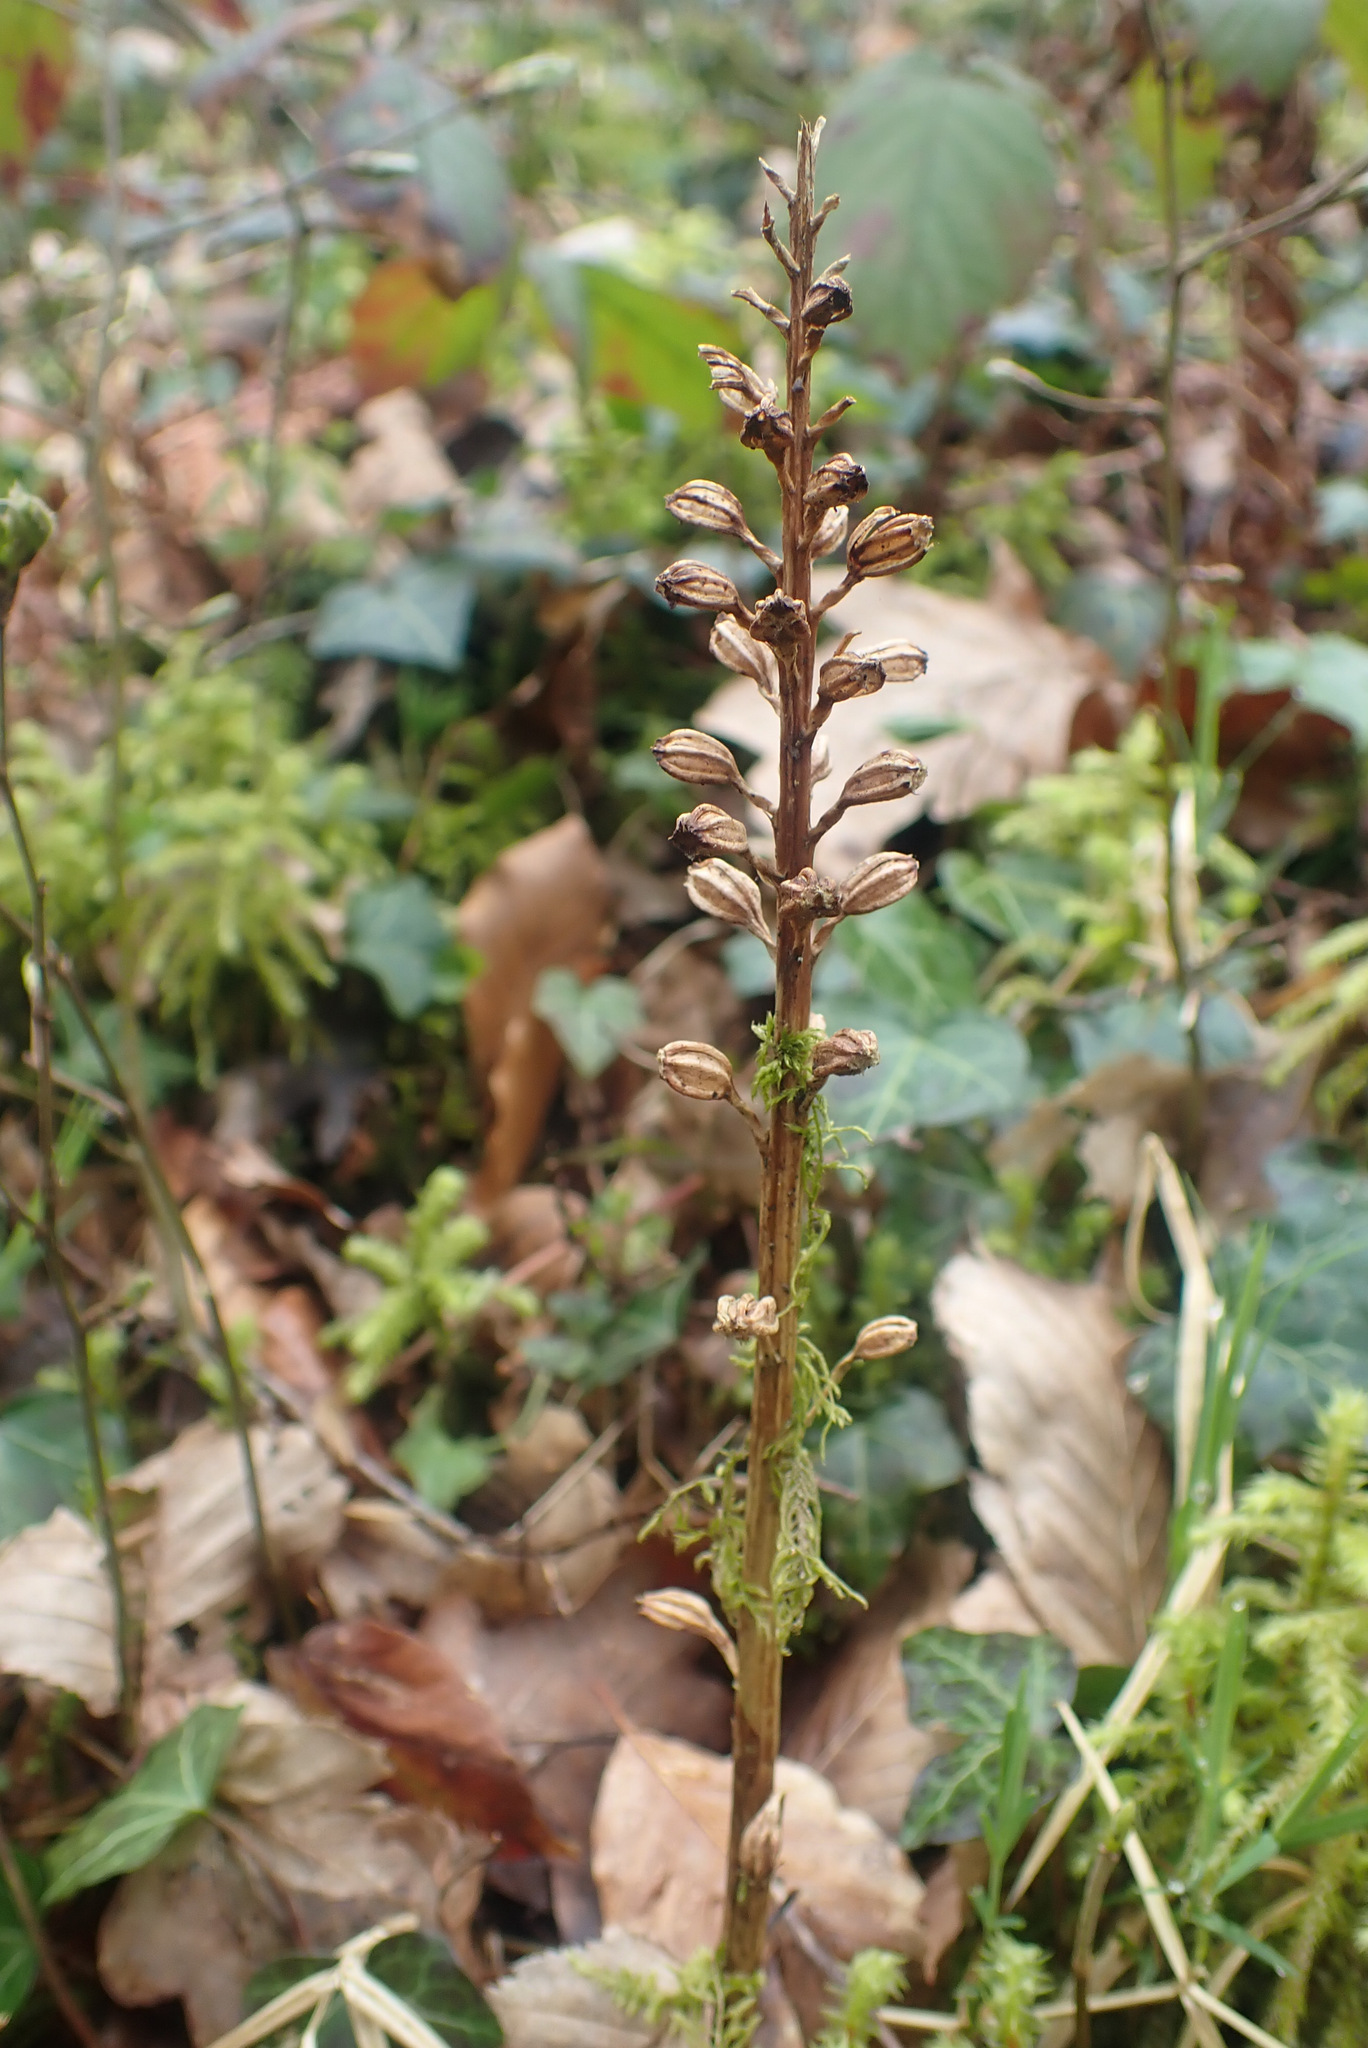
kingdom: Plantae
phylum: Tracheophyta
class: Liliopsida
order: Asparagales
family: Orchidaceae
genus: Neottia
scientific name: Neottia nidus-avis
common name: Bird's-nest orchid
